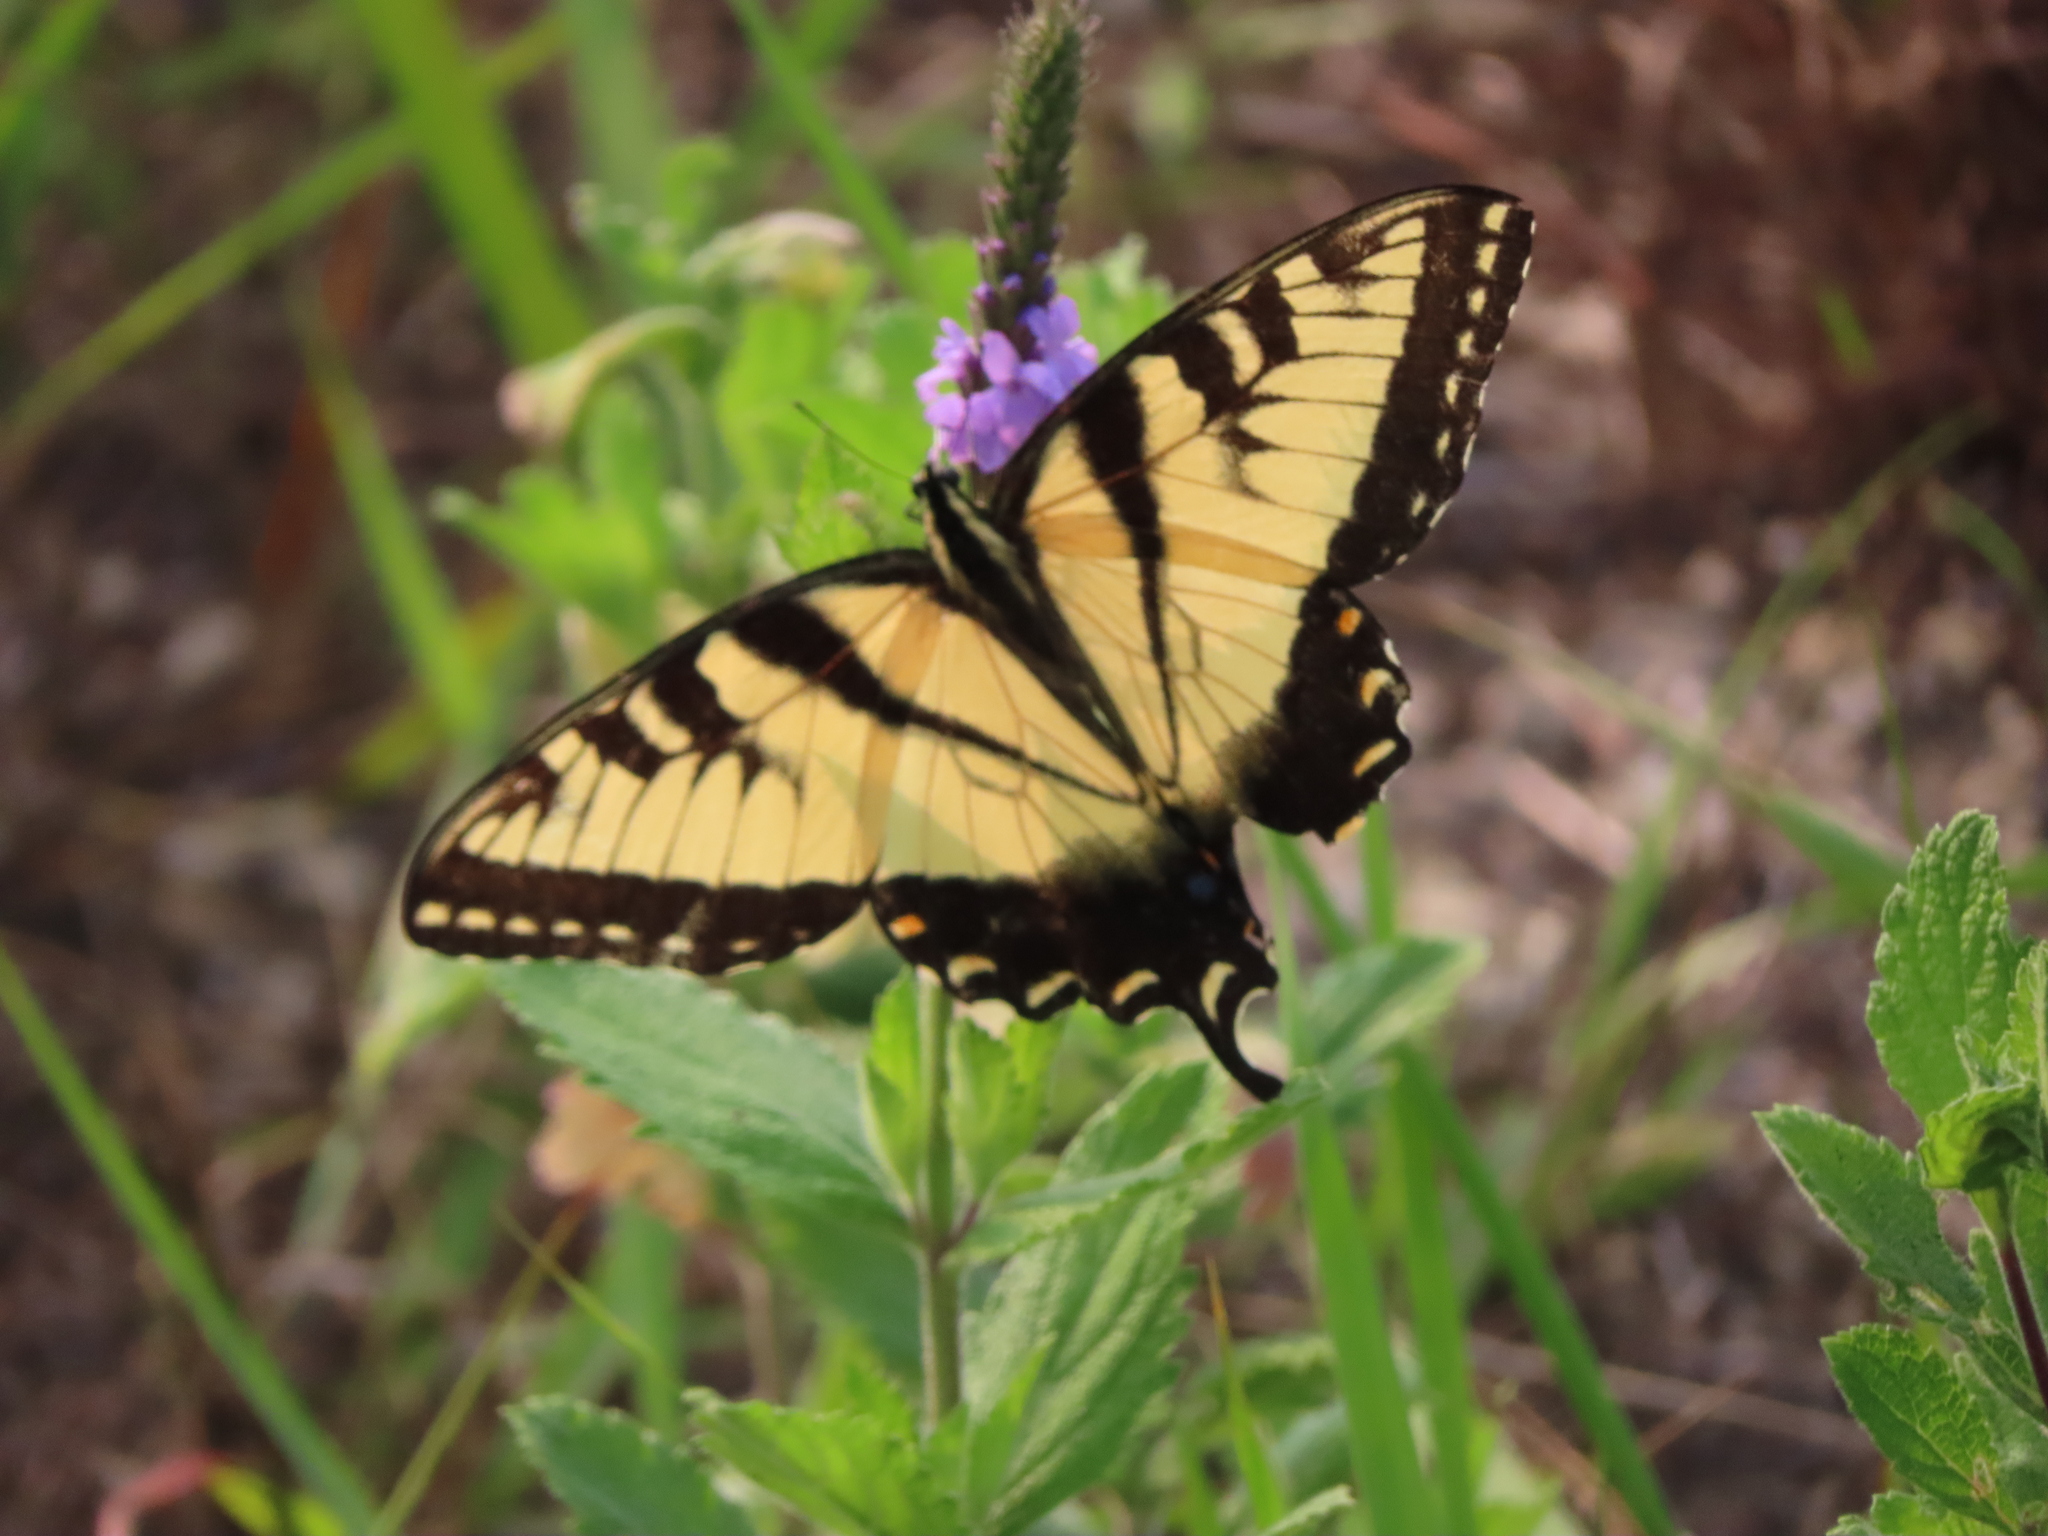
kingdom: Animalia
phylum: Arthropoda
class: Insecta
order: Lepidoptera
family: Papilionidae
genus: Papilio
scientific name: Papilio glaucus
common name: Tiger swallowtail
